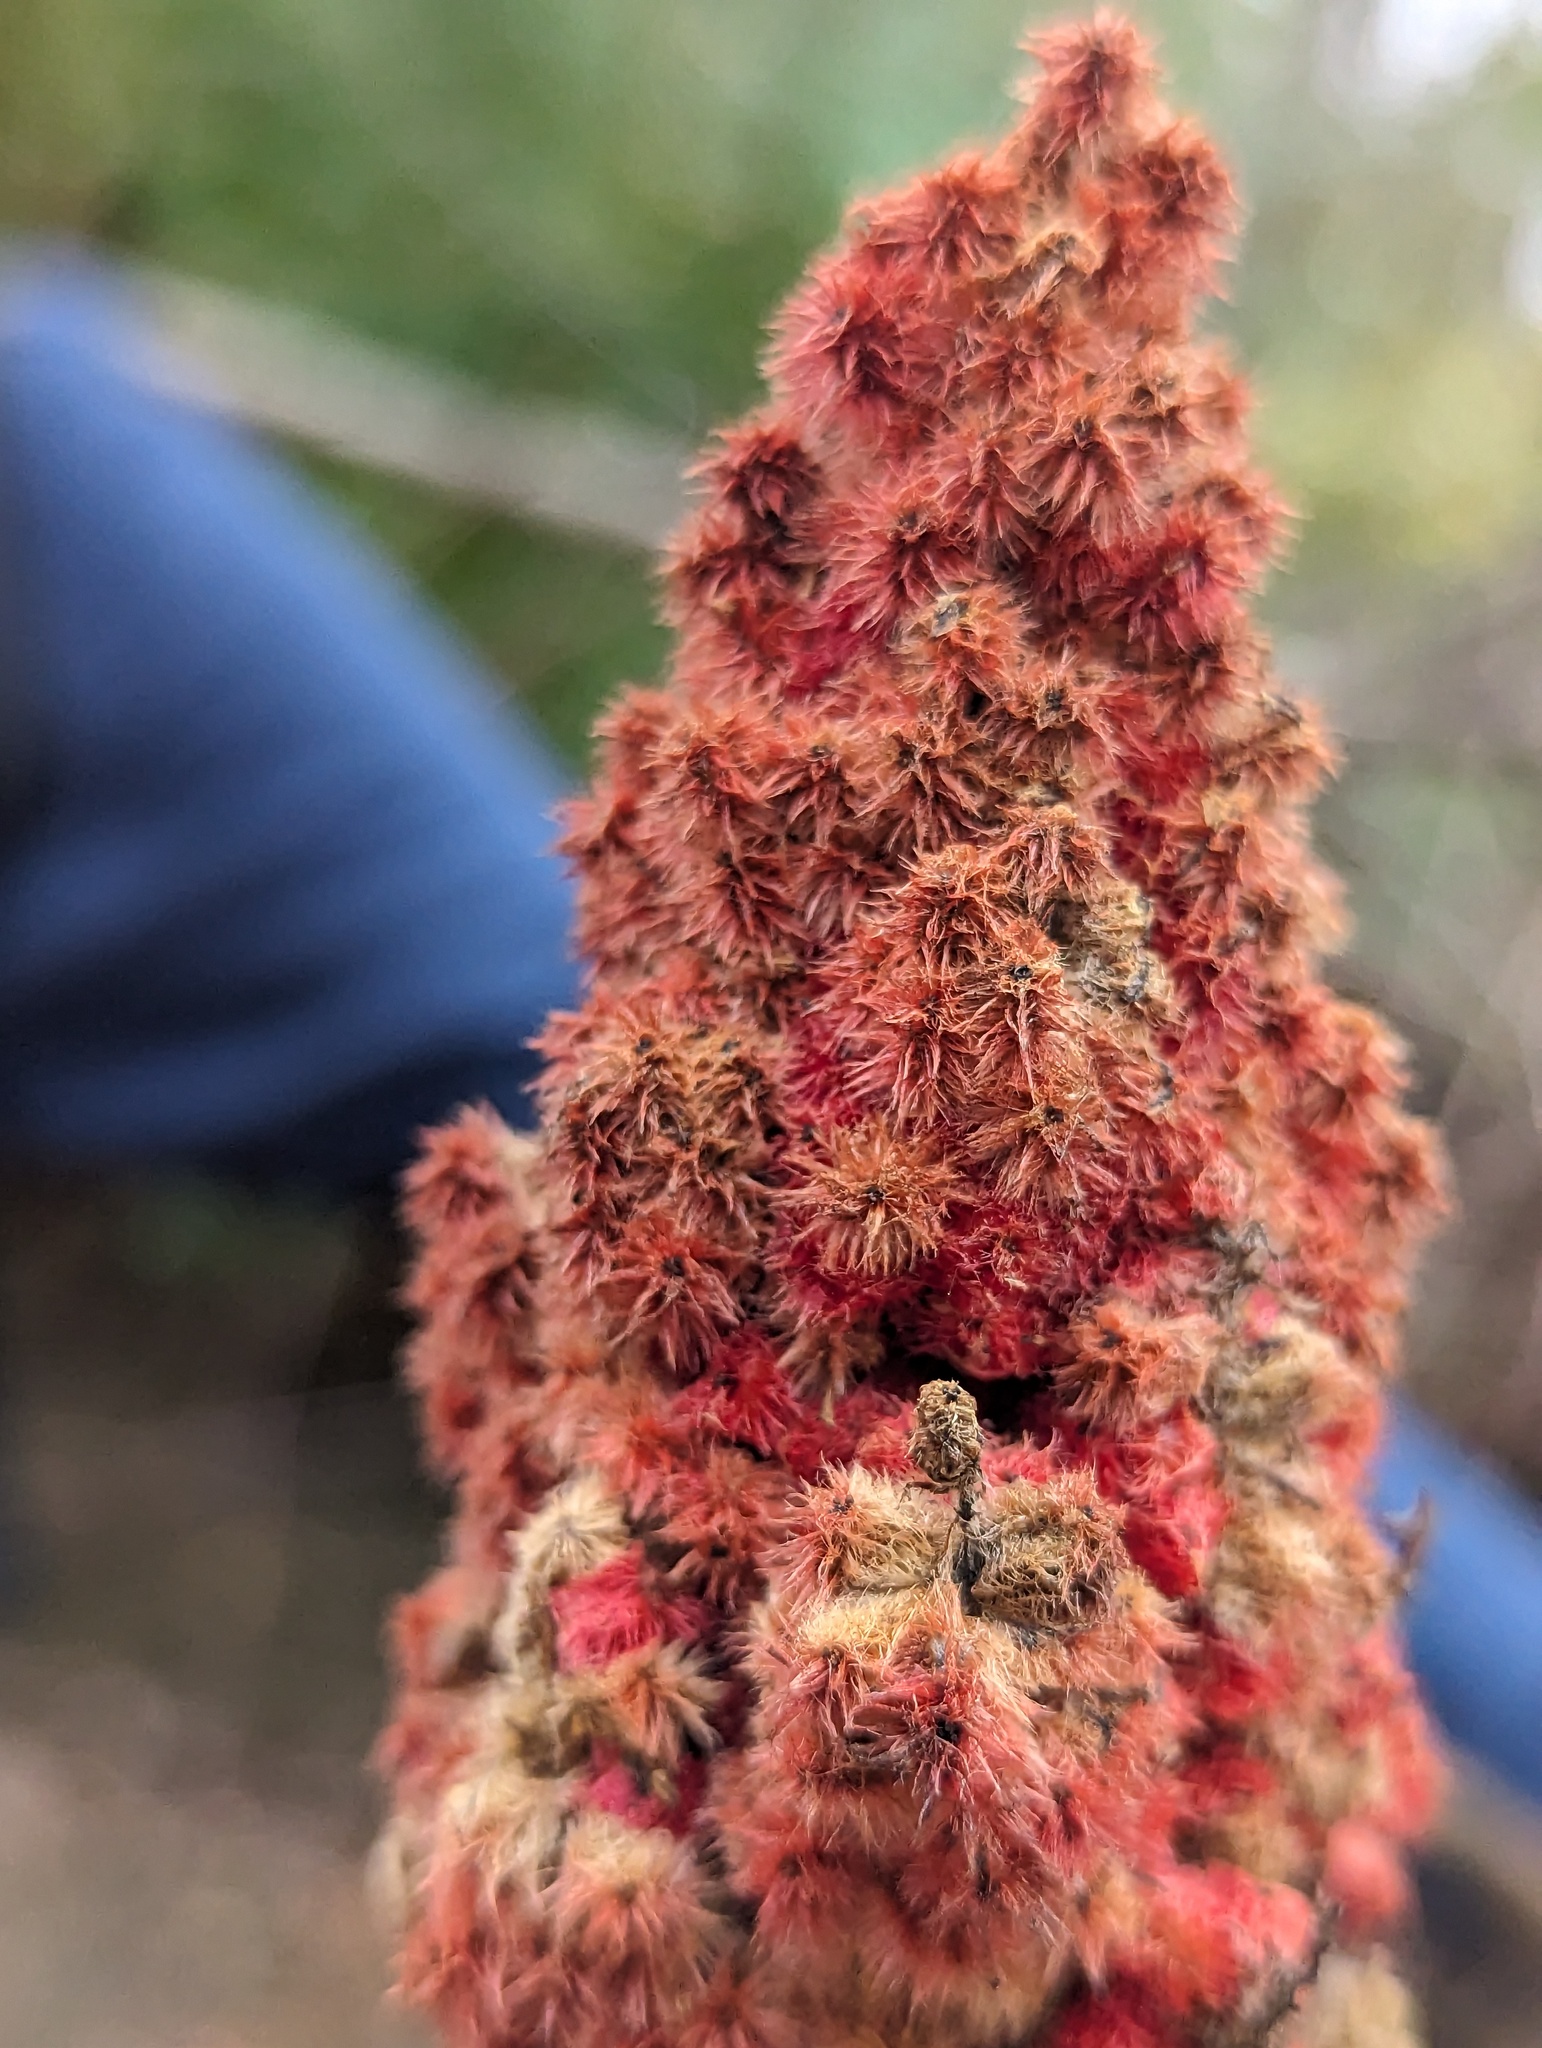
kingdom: Plantae
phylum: Tracheophyta
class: Magnoliopsida
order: Sapindales
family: Anacardiaceae
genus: Rhus
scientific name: Rhus typhina
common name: Staghorn sumac
